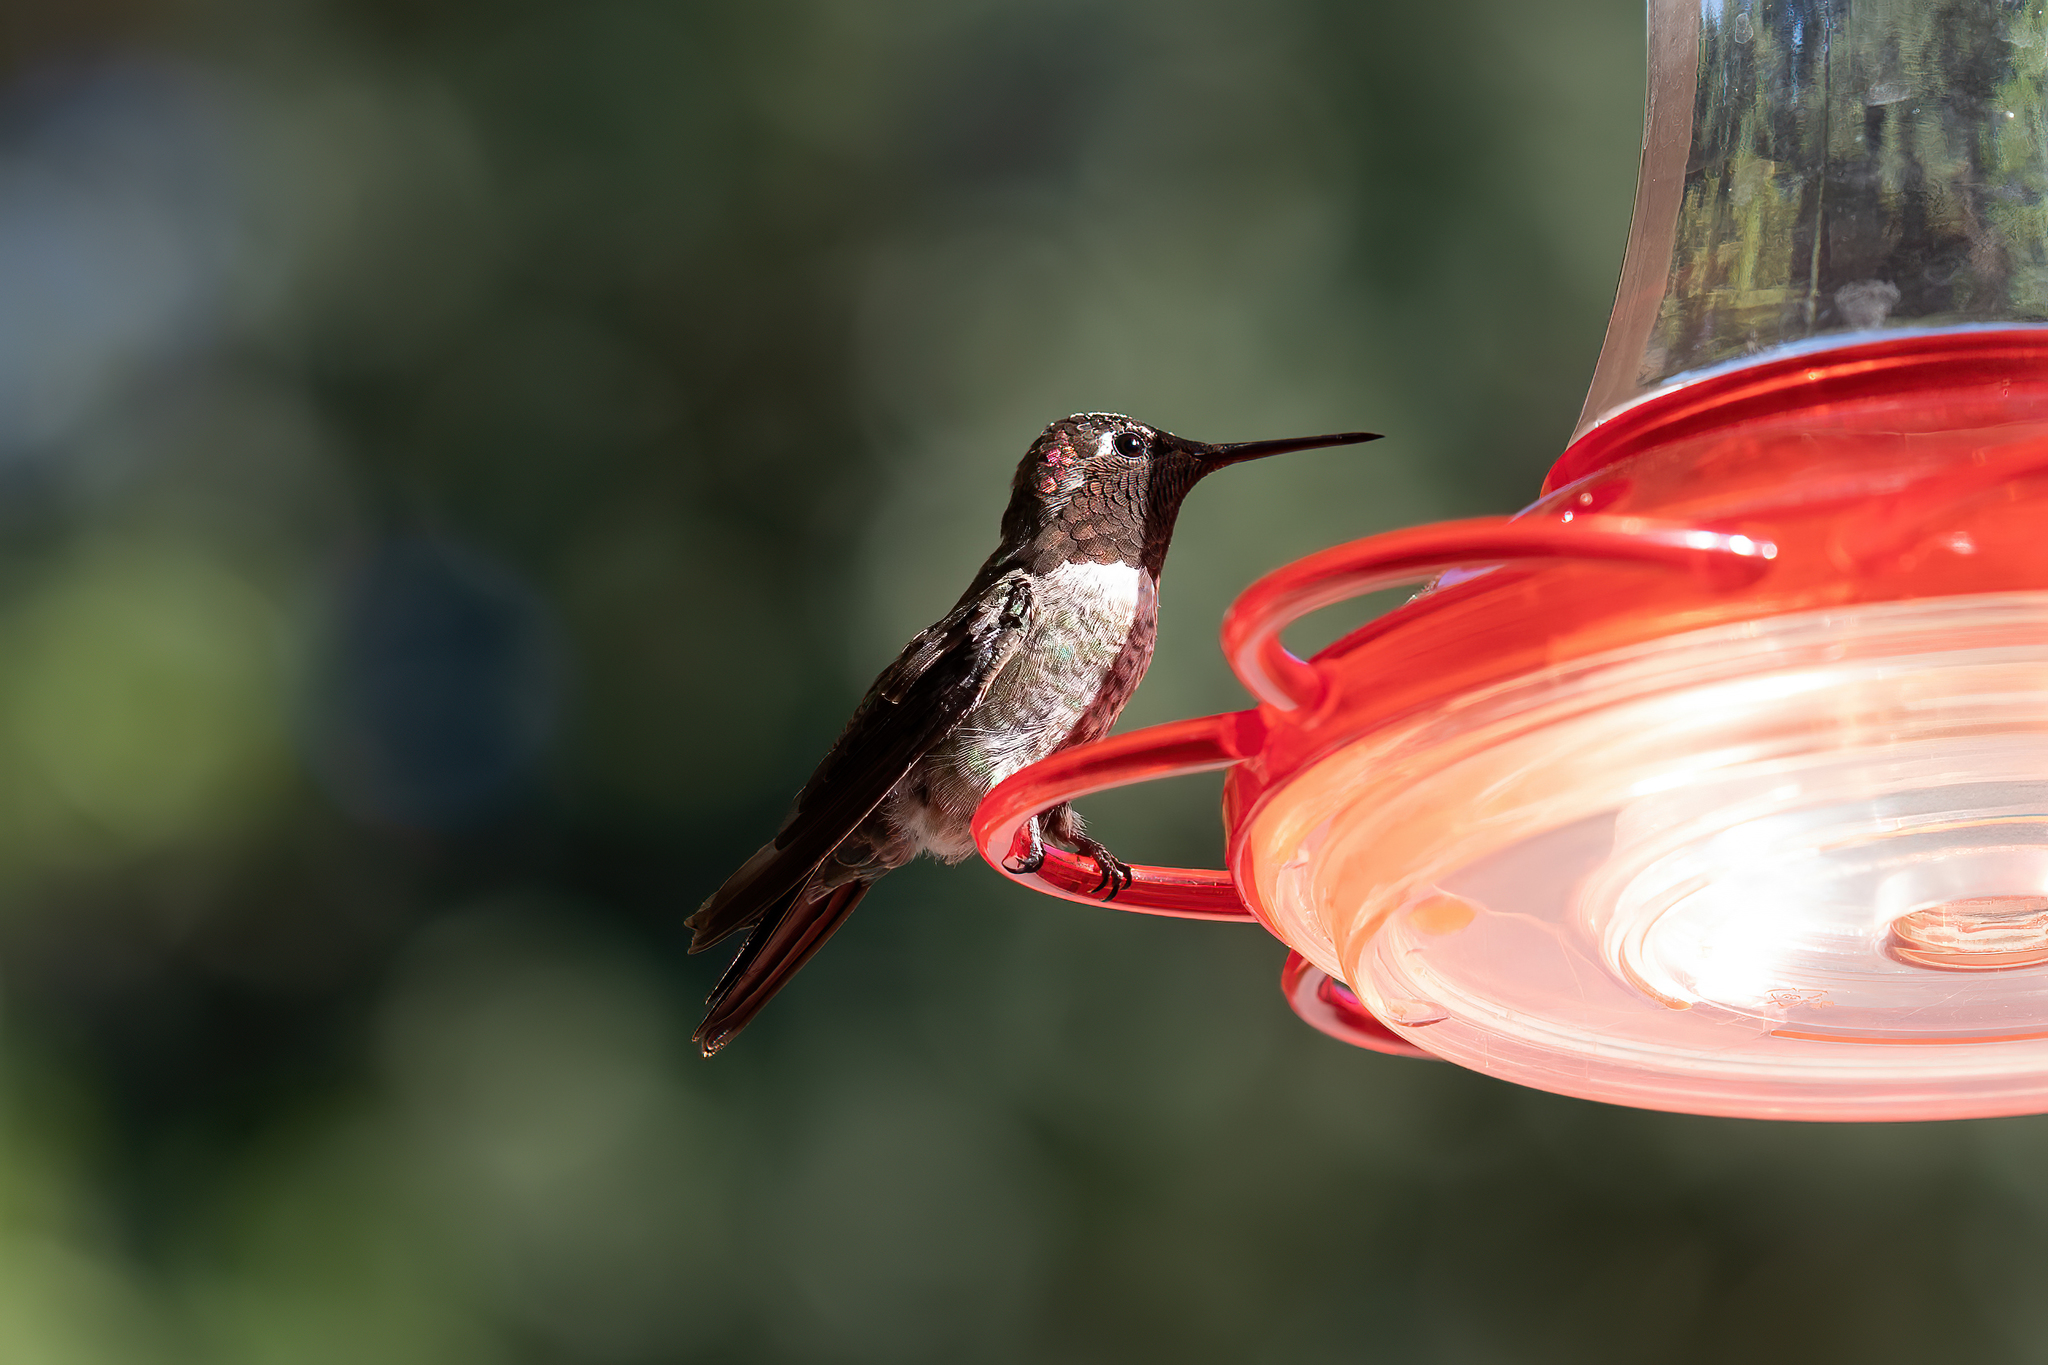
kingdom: Animalia
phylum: Chordata
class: Aves
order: Apodiformes
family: Trochilidae
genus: Calypte
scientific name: Calypte anna
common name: Anna's hummingbird
